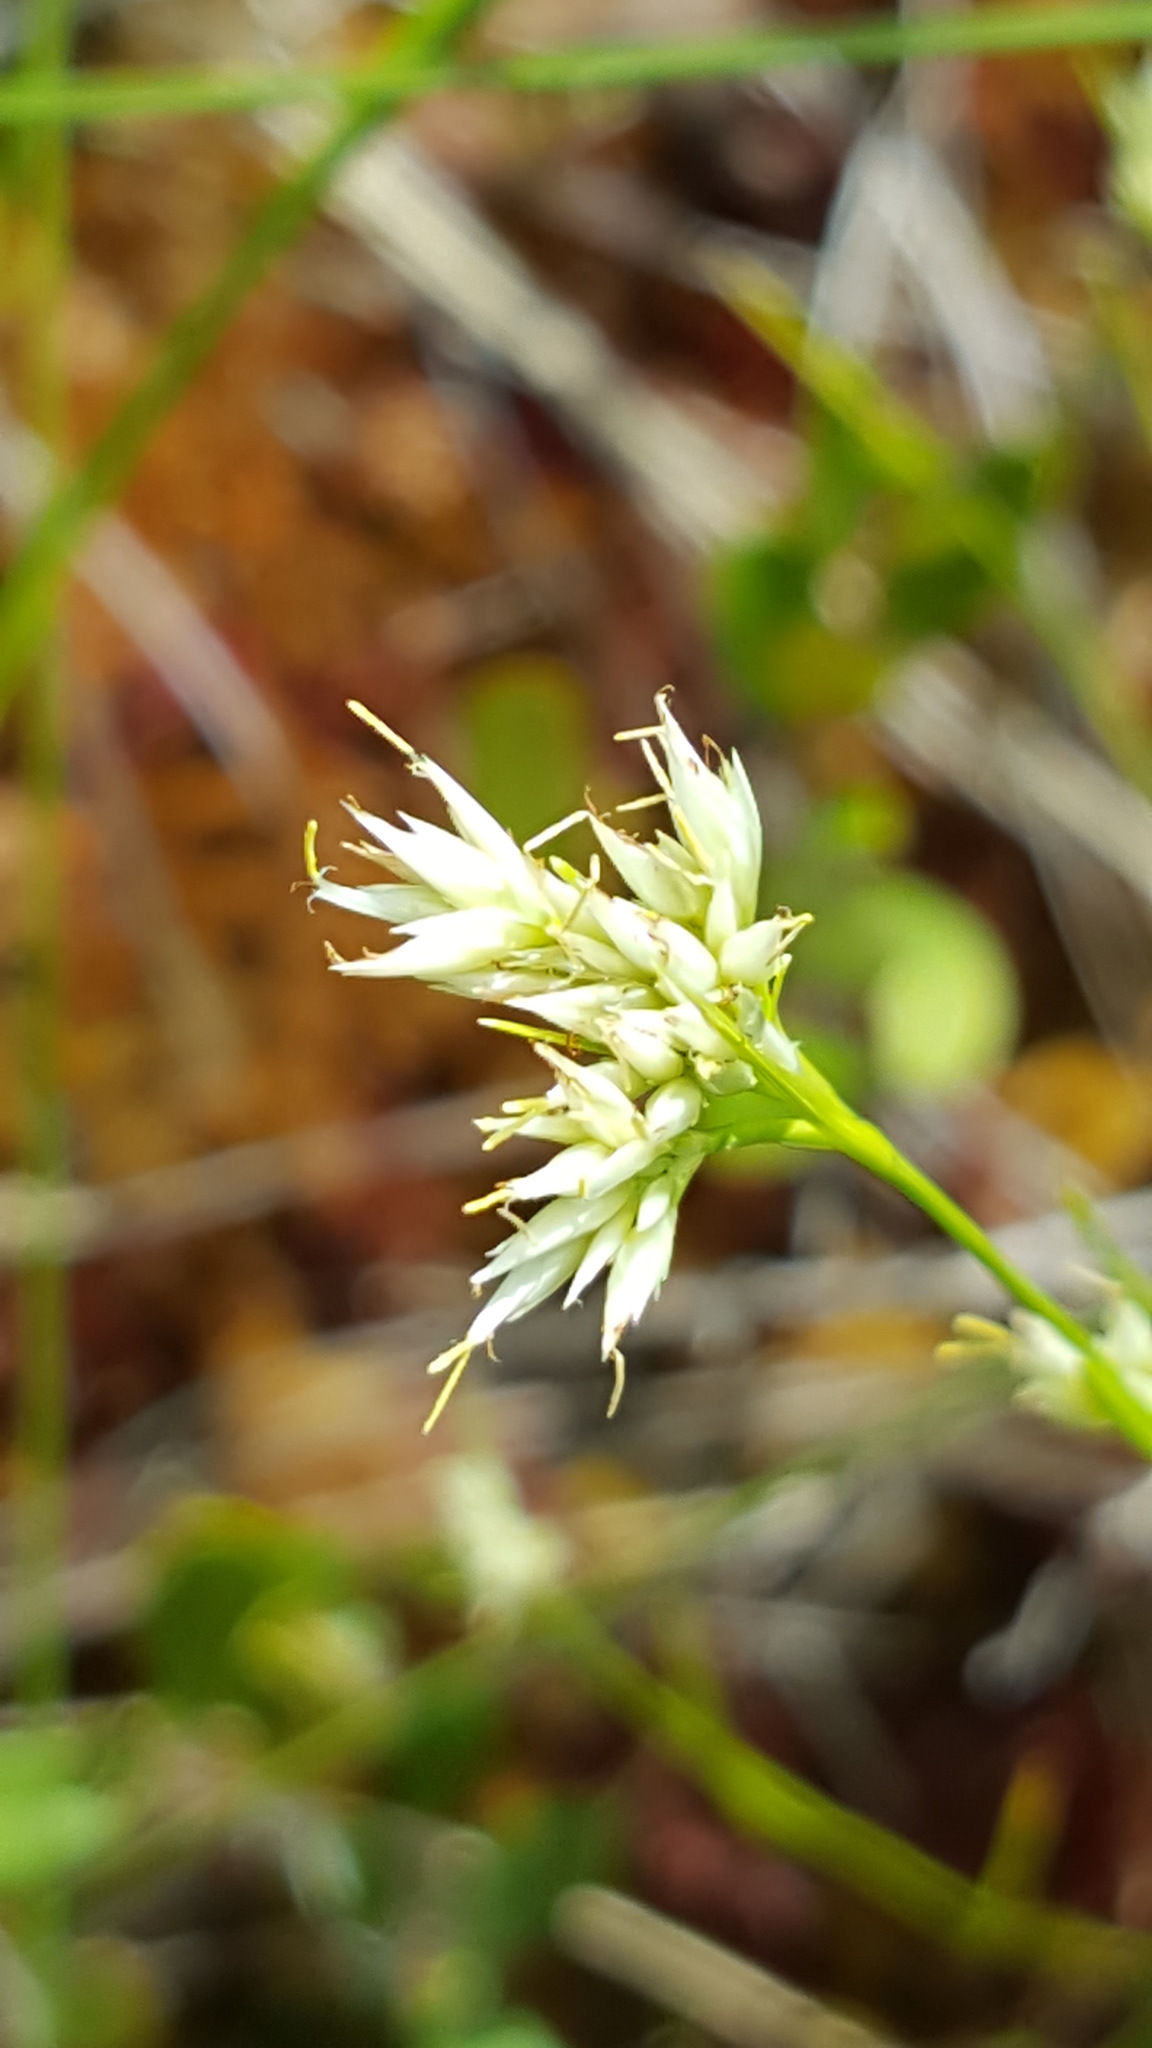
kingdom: Plantae
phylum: Tracheophyta
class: Liliopsida
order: Poales
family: Cyperaceae
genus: Rhynchospora
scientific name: Rhynchospora alba
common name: White beak-sedge
